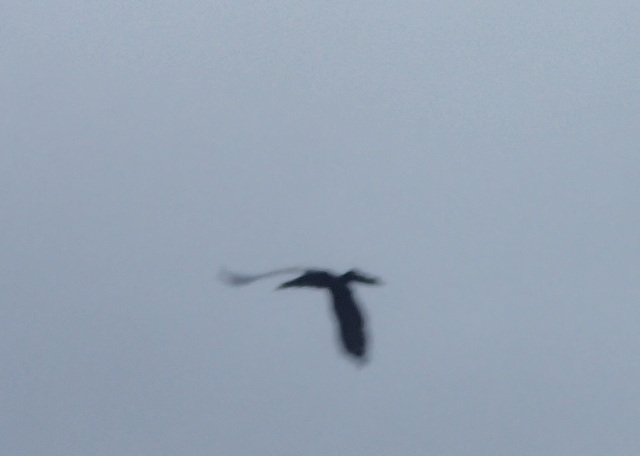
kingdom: Animalia
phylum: Chordata
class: Aves
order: Suliformes
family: Anhingidae
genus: Anhinga
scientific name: Anhinga anhinga
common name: Anhinga
